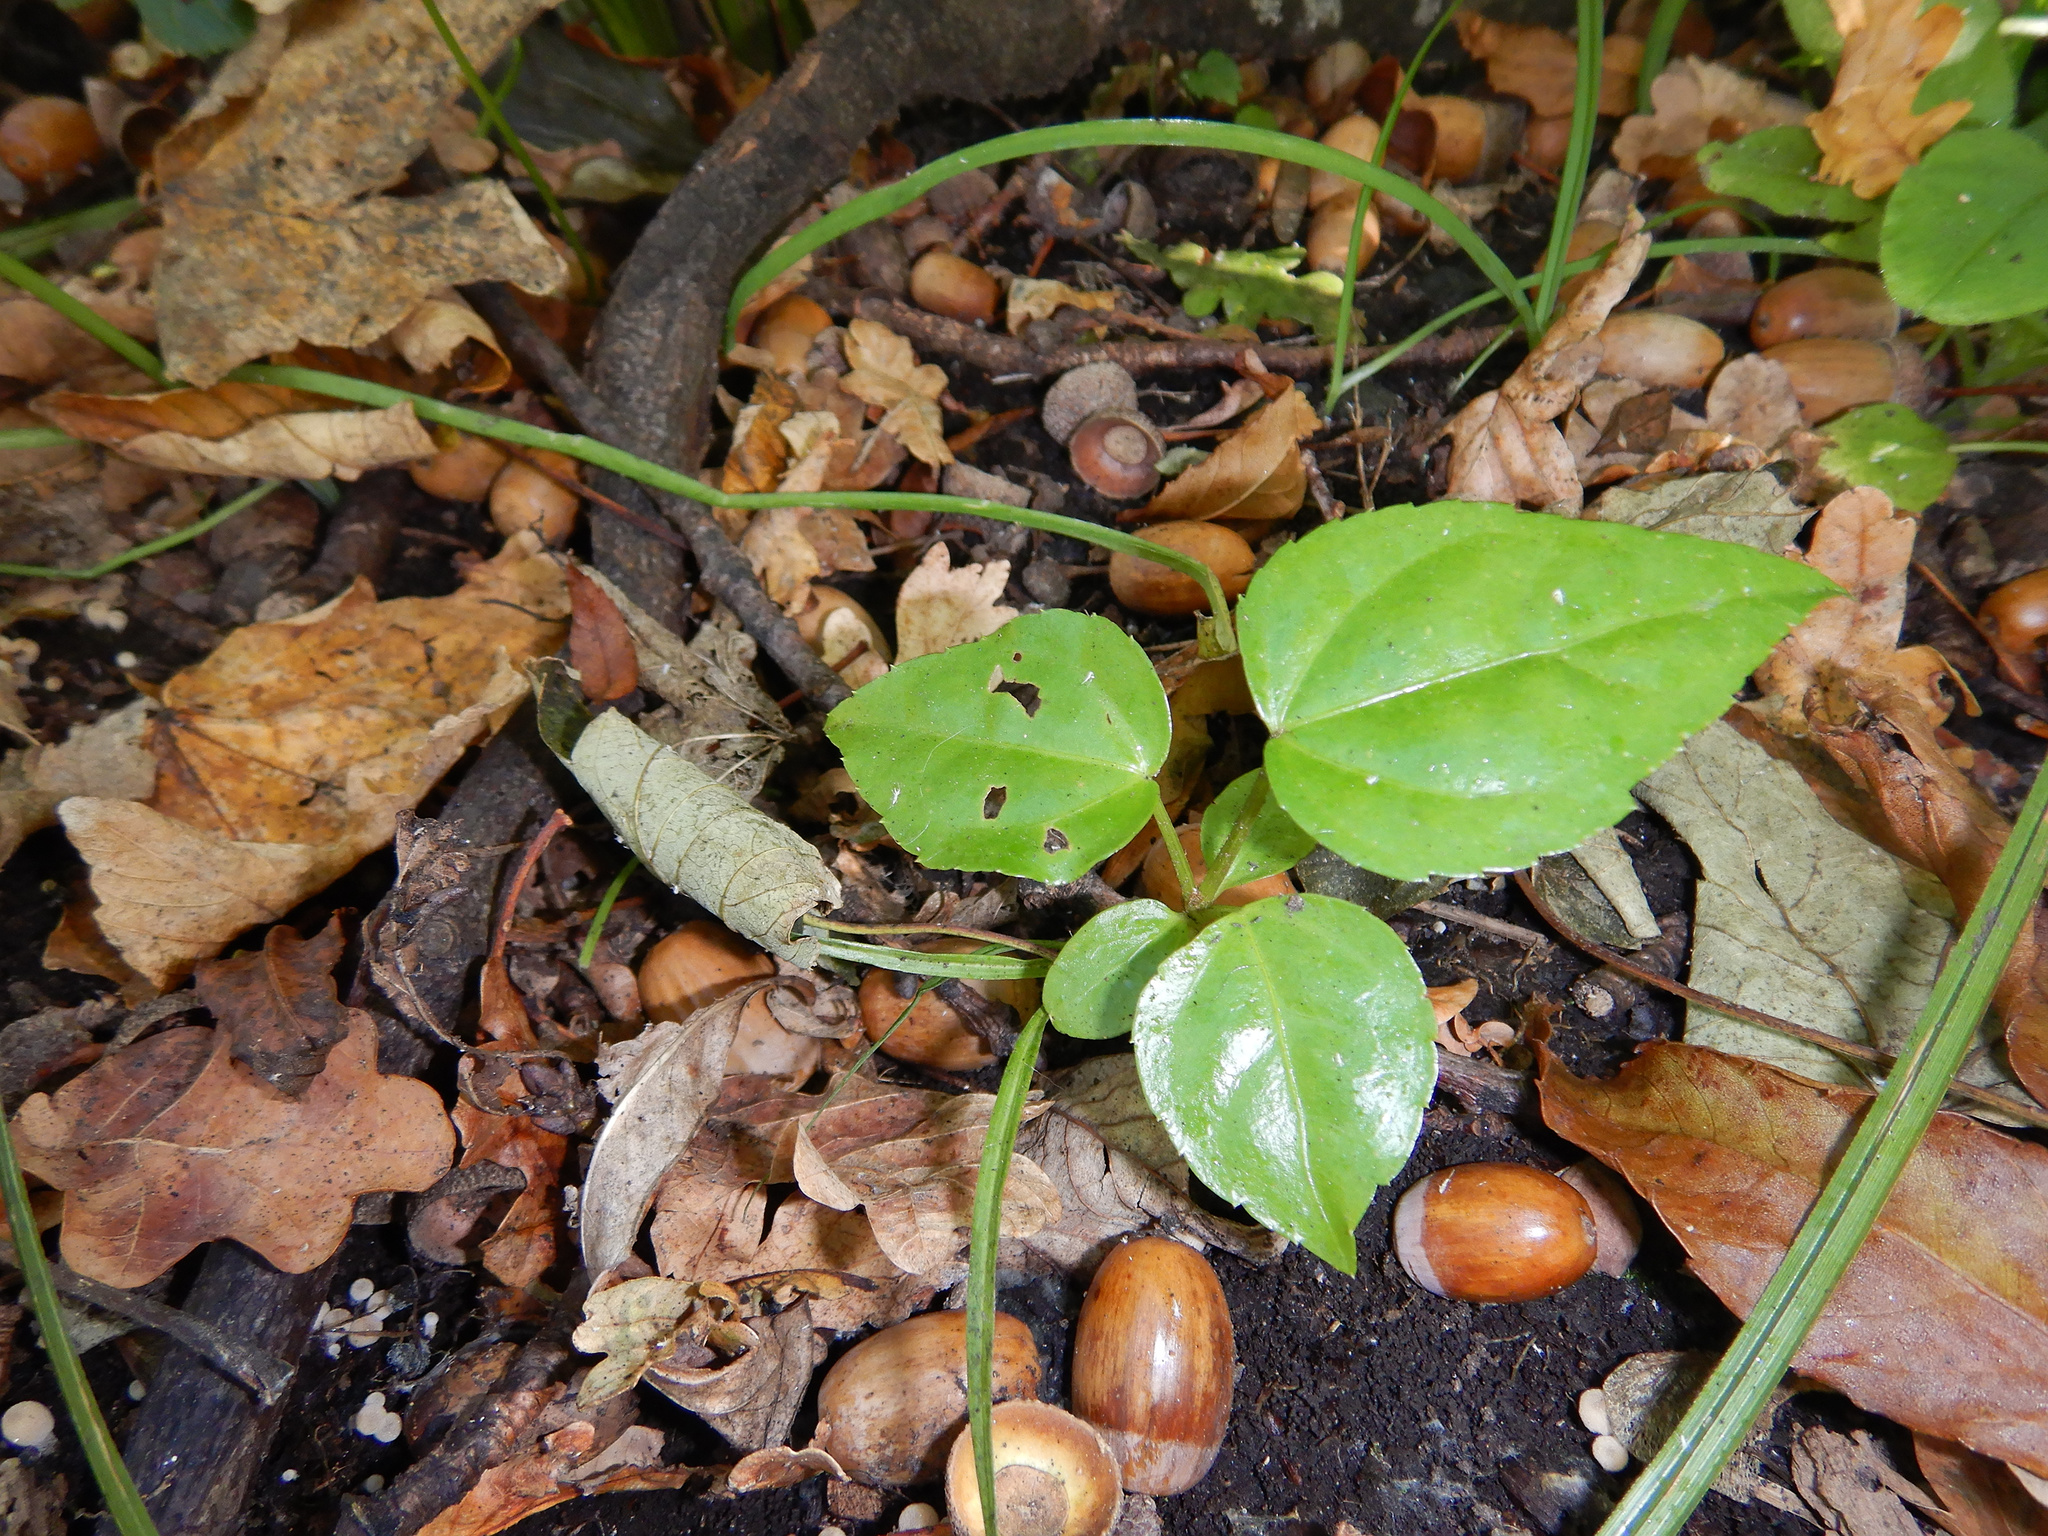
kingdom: Plantae
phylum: Tracheophyta
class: Magnoliopsida
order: Apiales
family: Araliaceae
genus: Fatsia
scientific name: Fatsia japonica
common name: Fatsia
